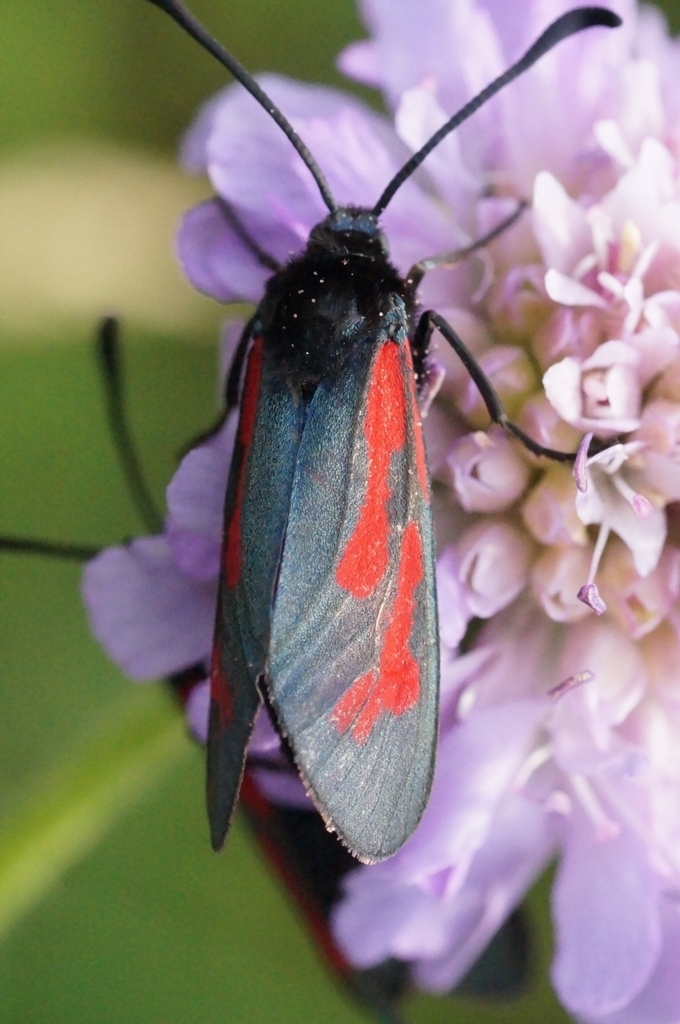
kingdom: Animalia
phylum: Arthropoda
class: Insecta
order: Lepidoptera
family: Zygaenidae
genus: Zygaena
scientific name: Zygaena minos
